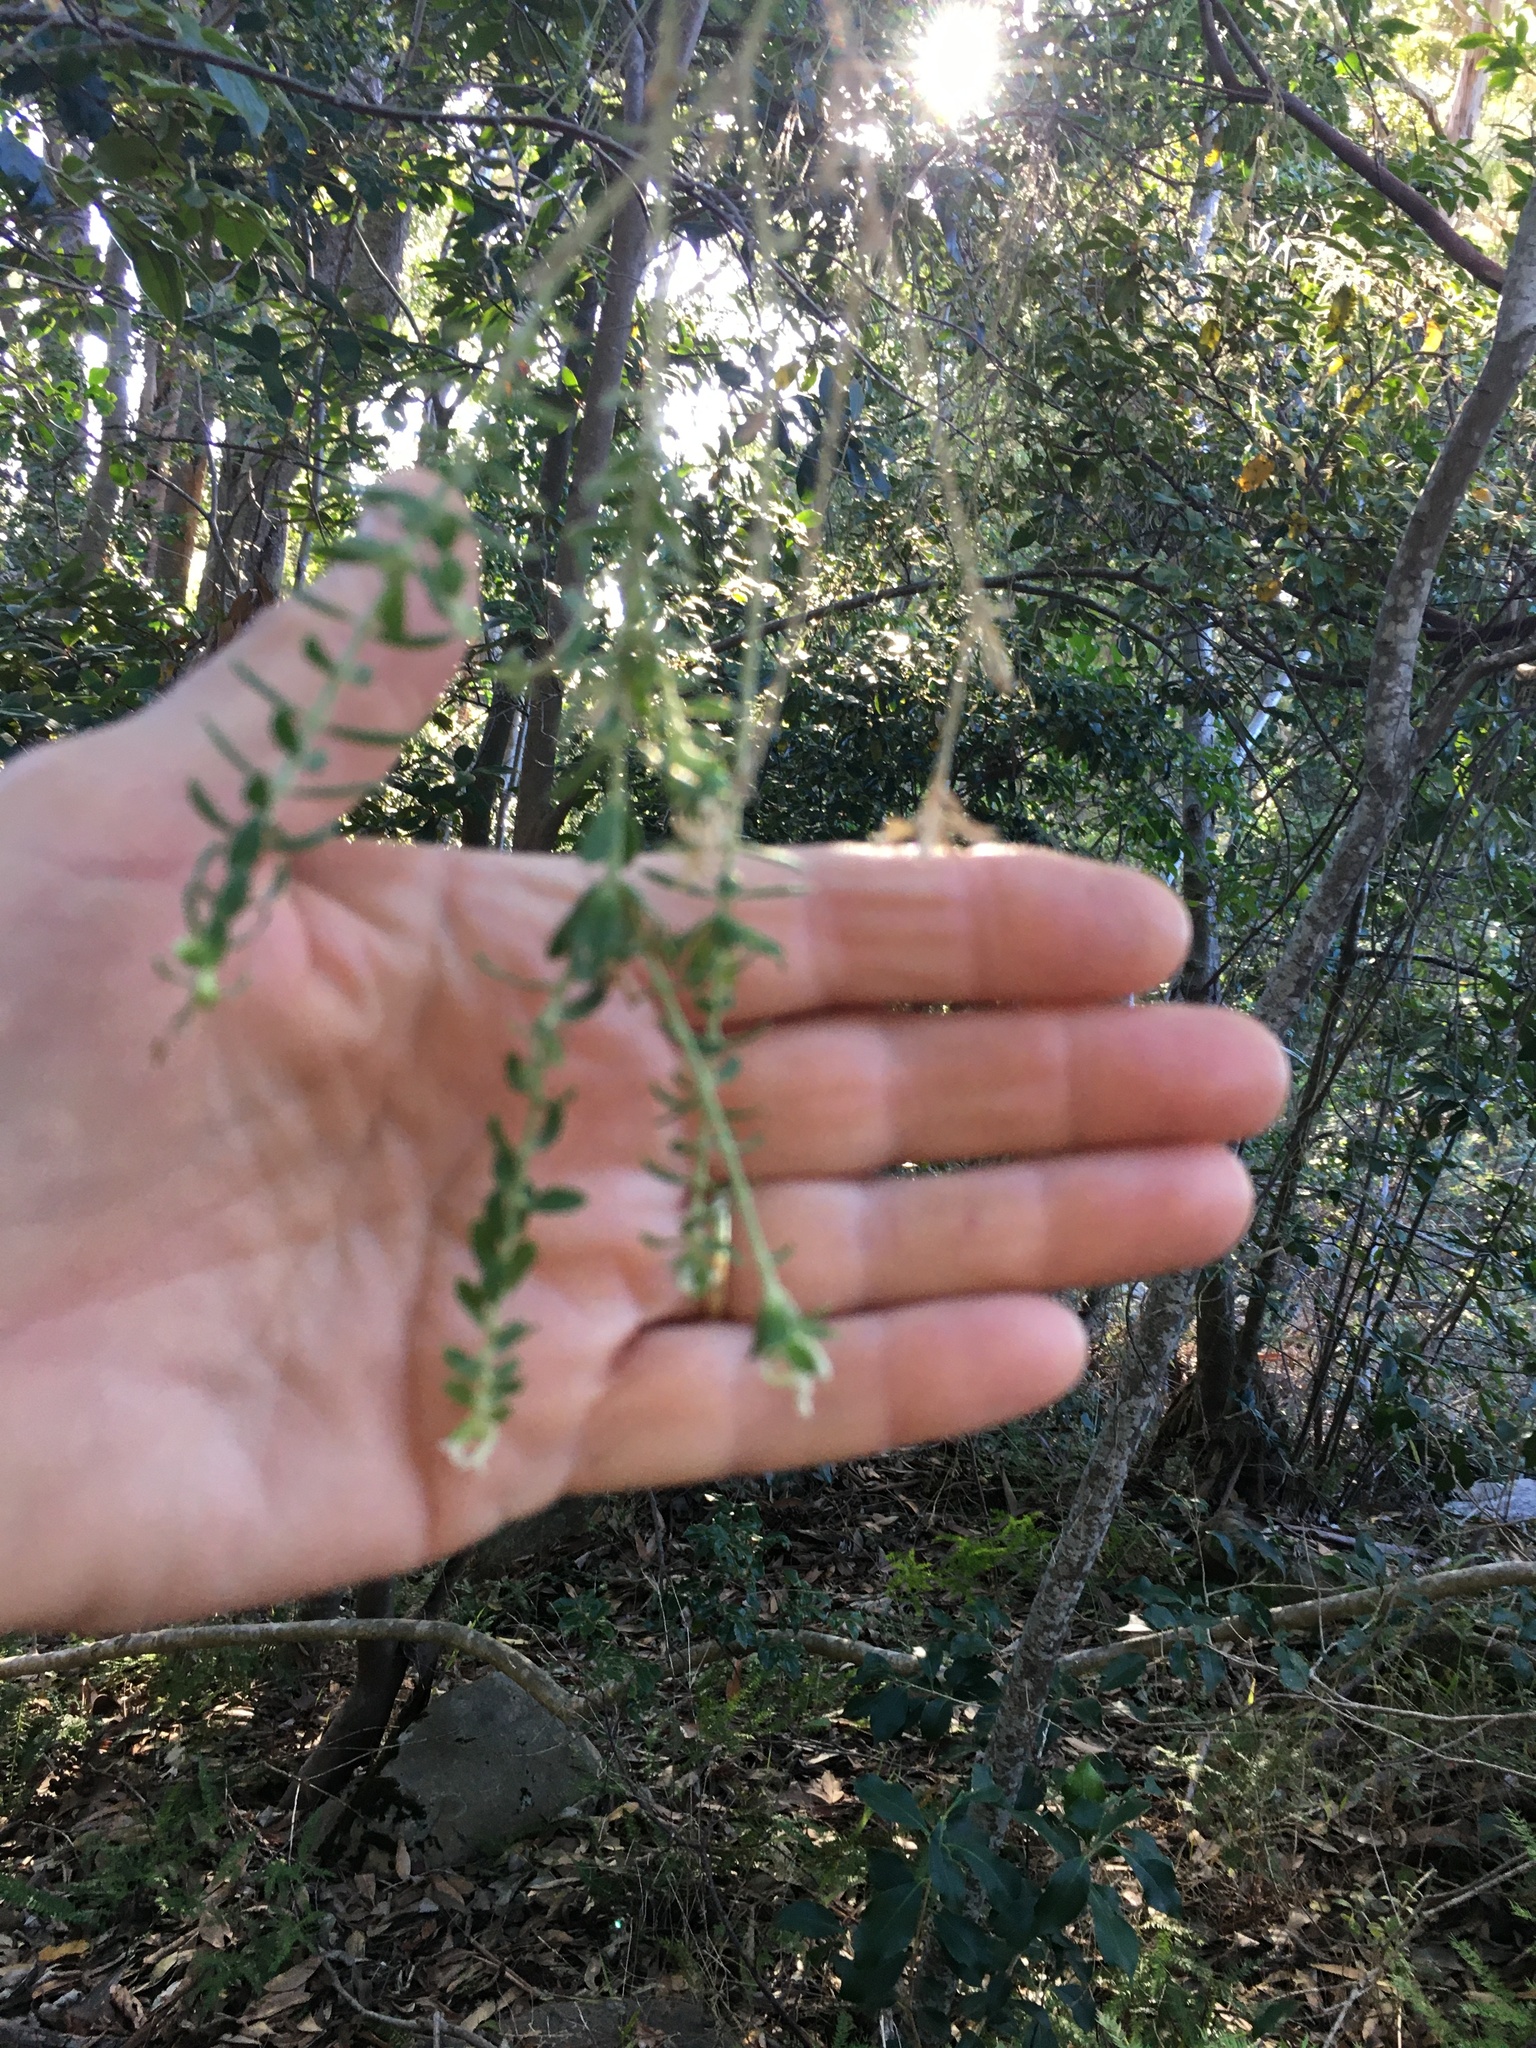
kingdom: Plantae
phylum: Tracheophyta
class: Magnoliopsida
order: Malvales
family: Thymelaeaceae
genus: Gnidia
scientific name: Gnidia sericea
